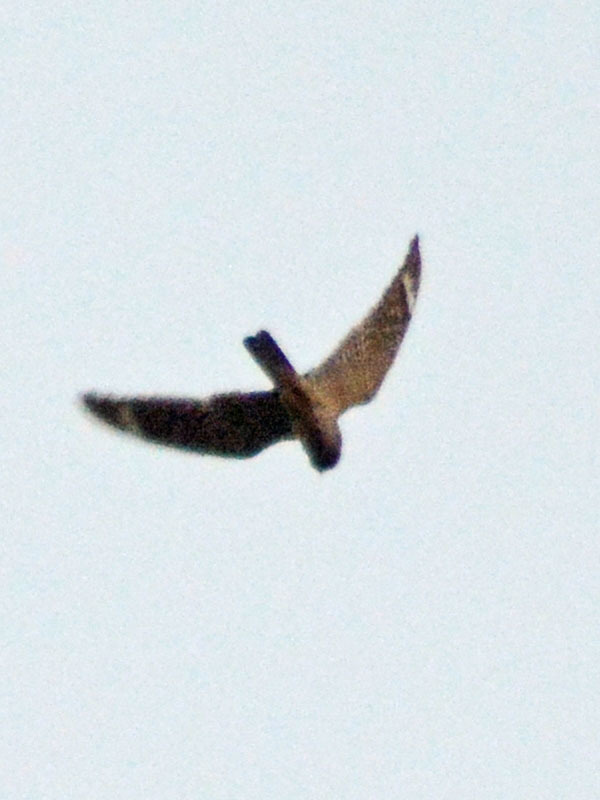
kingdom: Animalia
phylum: Chordata
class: Aves
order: Caprimulgiformes
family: Caprimulgidae
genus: Chordeiles
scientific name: Chordeiles acutipennis
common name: Lesser nighthawk
